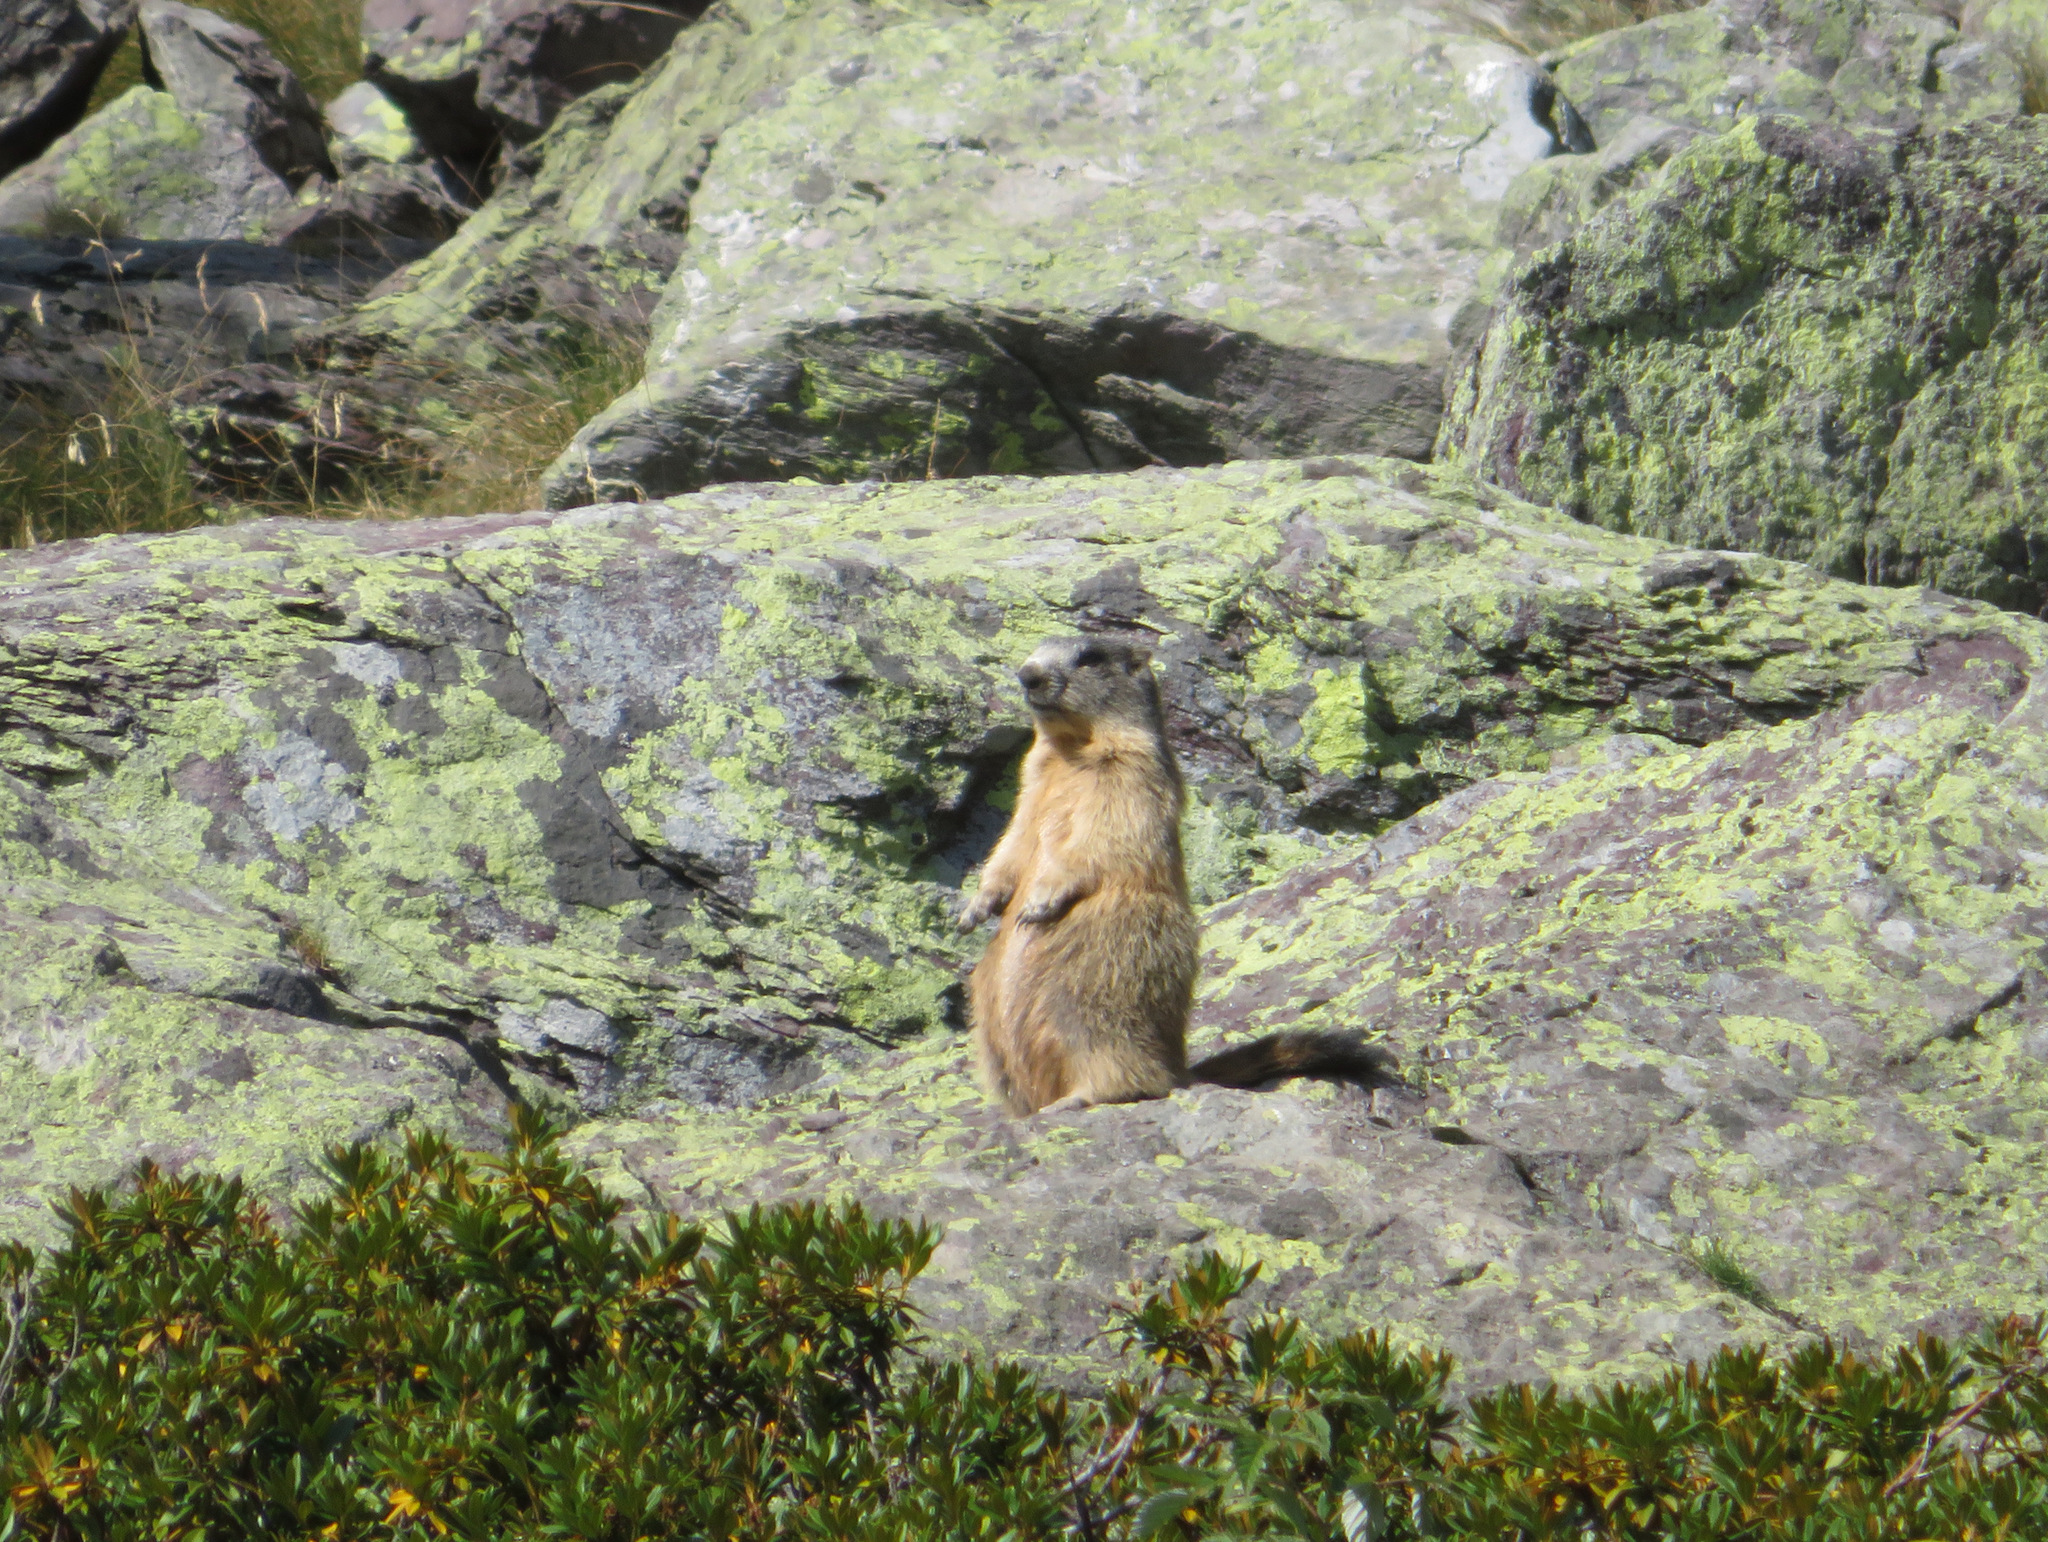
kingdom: Animalia
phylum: Chordata
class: Mammalia
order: Rodentia
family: Sciuridae
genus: Marmota
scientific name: Marmota marmota
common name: Alpine marmot
